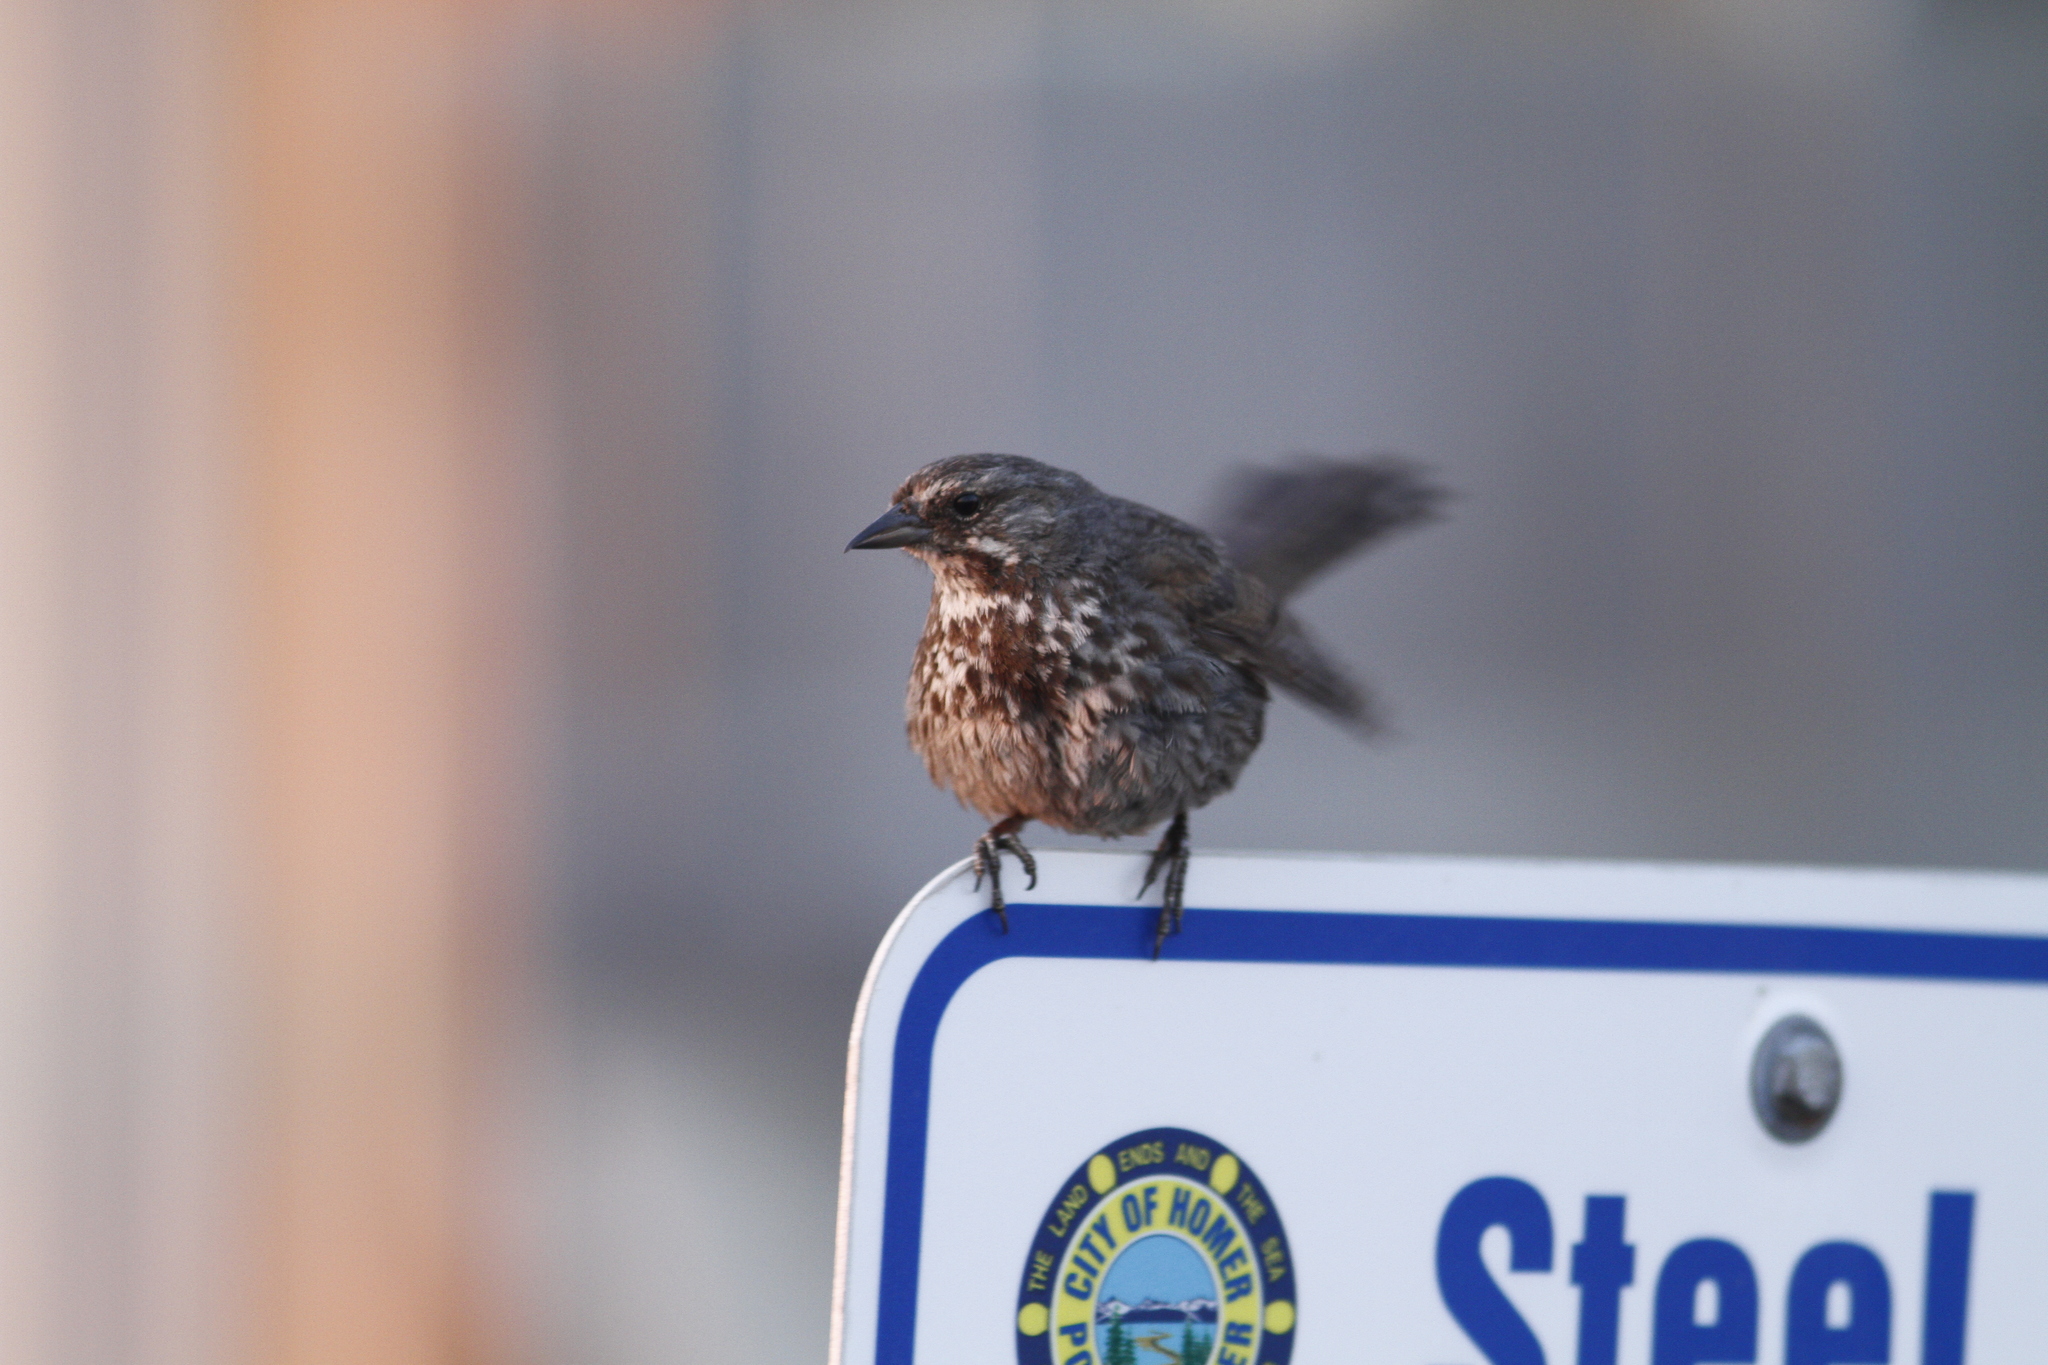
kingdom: Animalia
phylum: Chordata
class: Aves
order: Passeriformes
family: Passerellidae
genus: Melospiza
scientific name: Melospiza melodia
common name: Song sparrow
